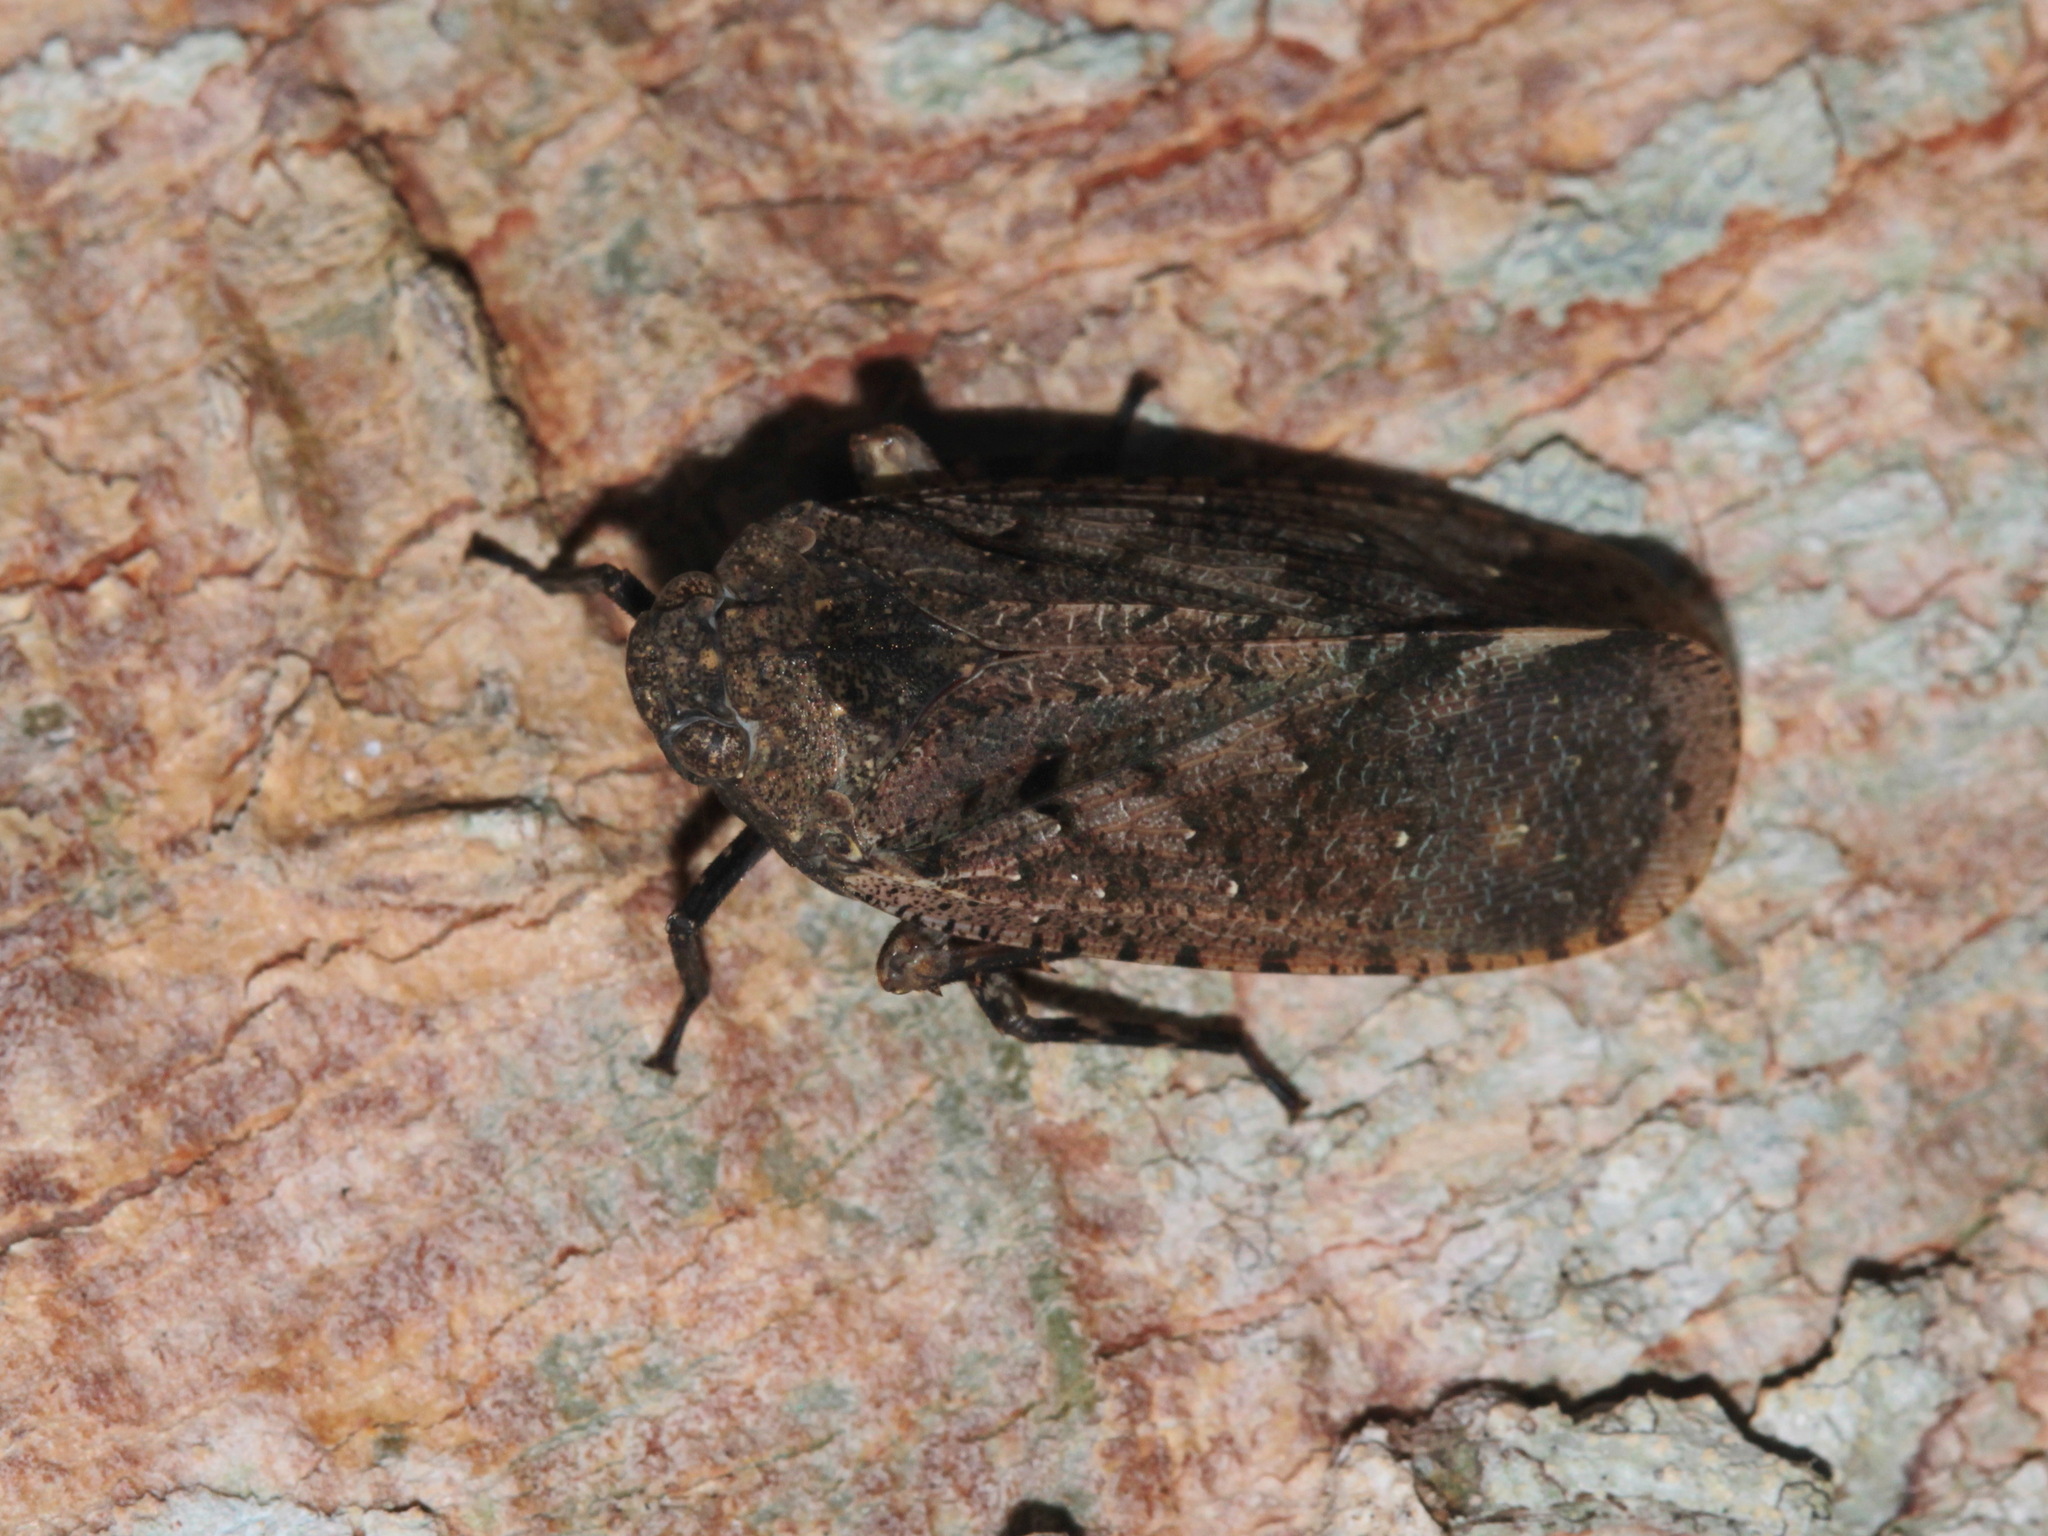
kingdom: Animalia
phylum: Arthropoda
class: Insecta
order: Hemiptera
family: Fulgoridae
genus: Penthicodes
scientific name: Penthicodes pulchella
